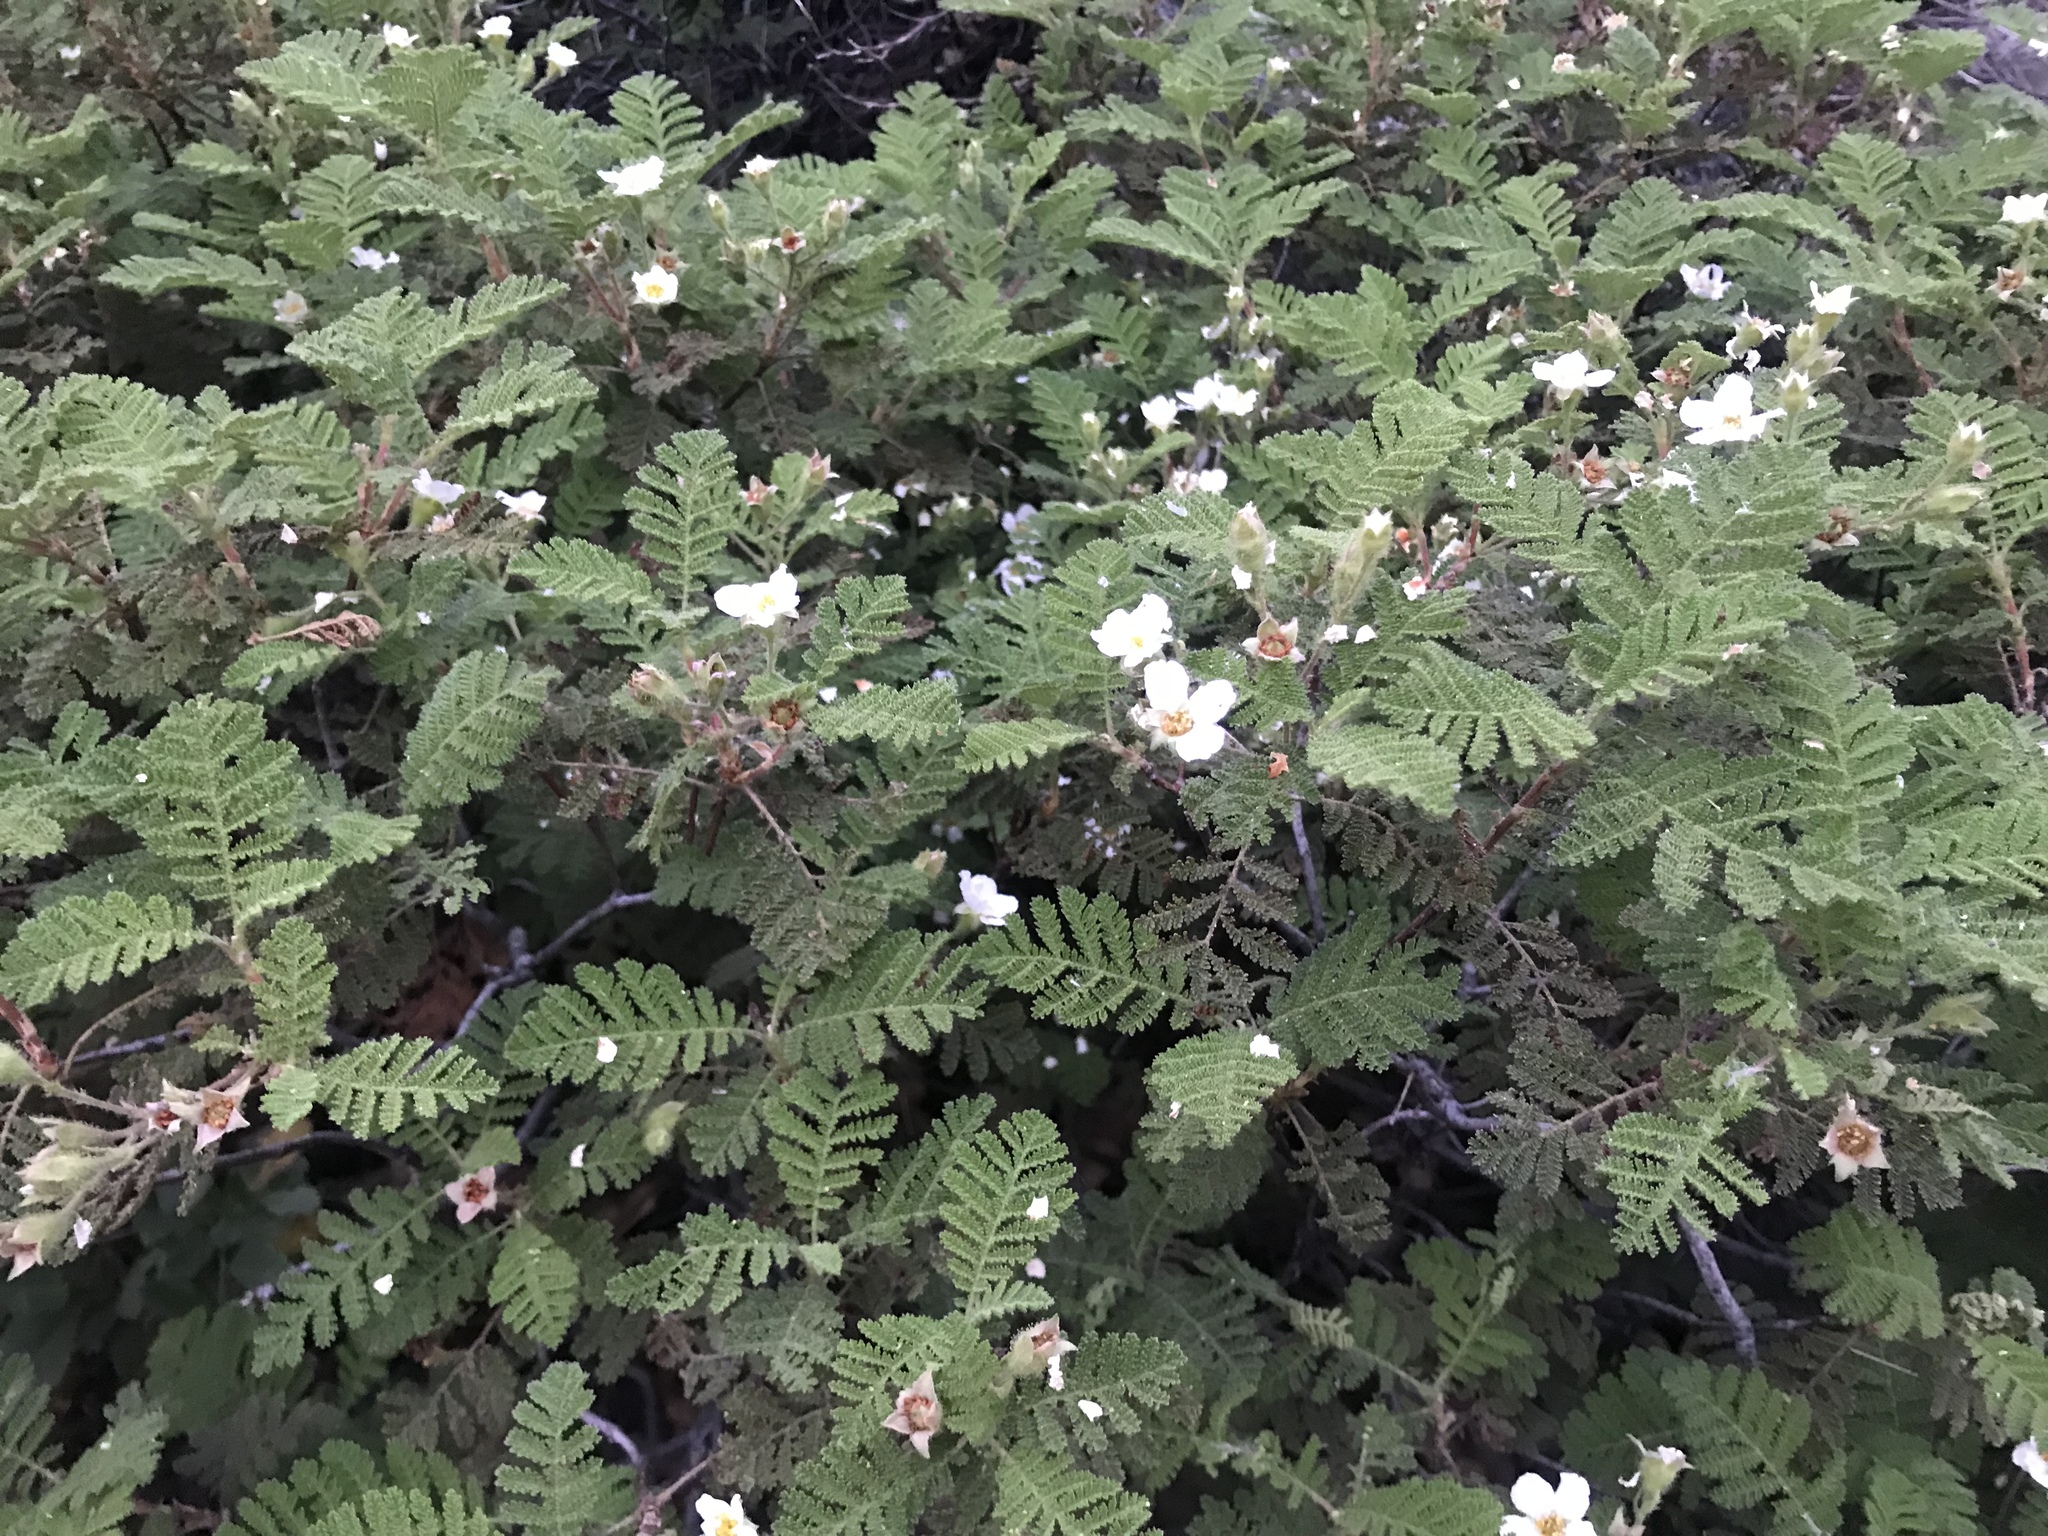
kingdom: Plantae
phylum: Tracheophyta
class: Magnoliopsida
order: Rosales
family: Rosaceae
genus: Chamaebatia
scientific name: Chamaebatia foliolosa
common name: Mountain misery
